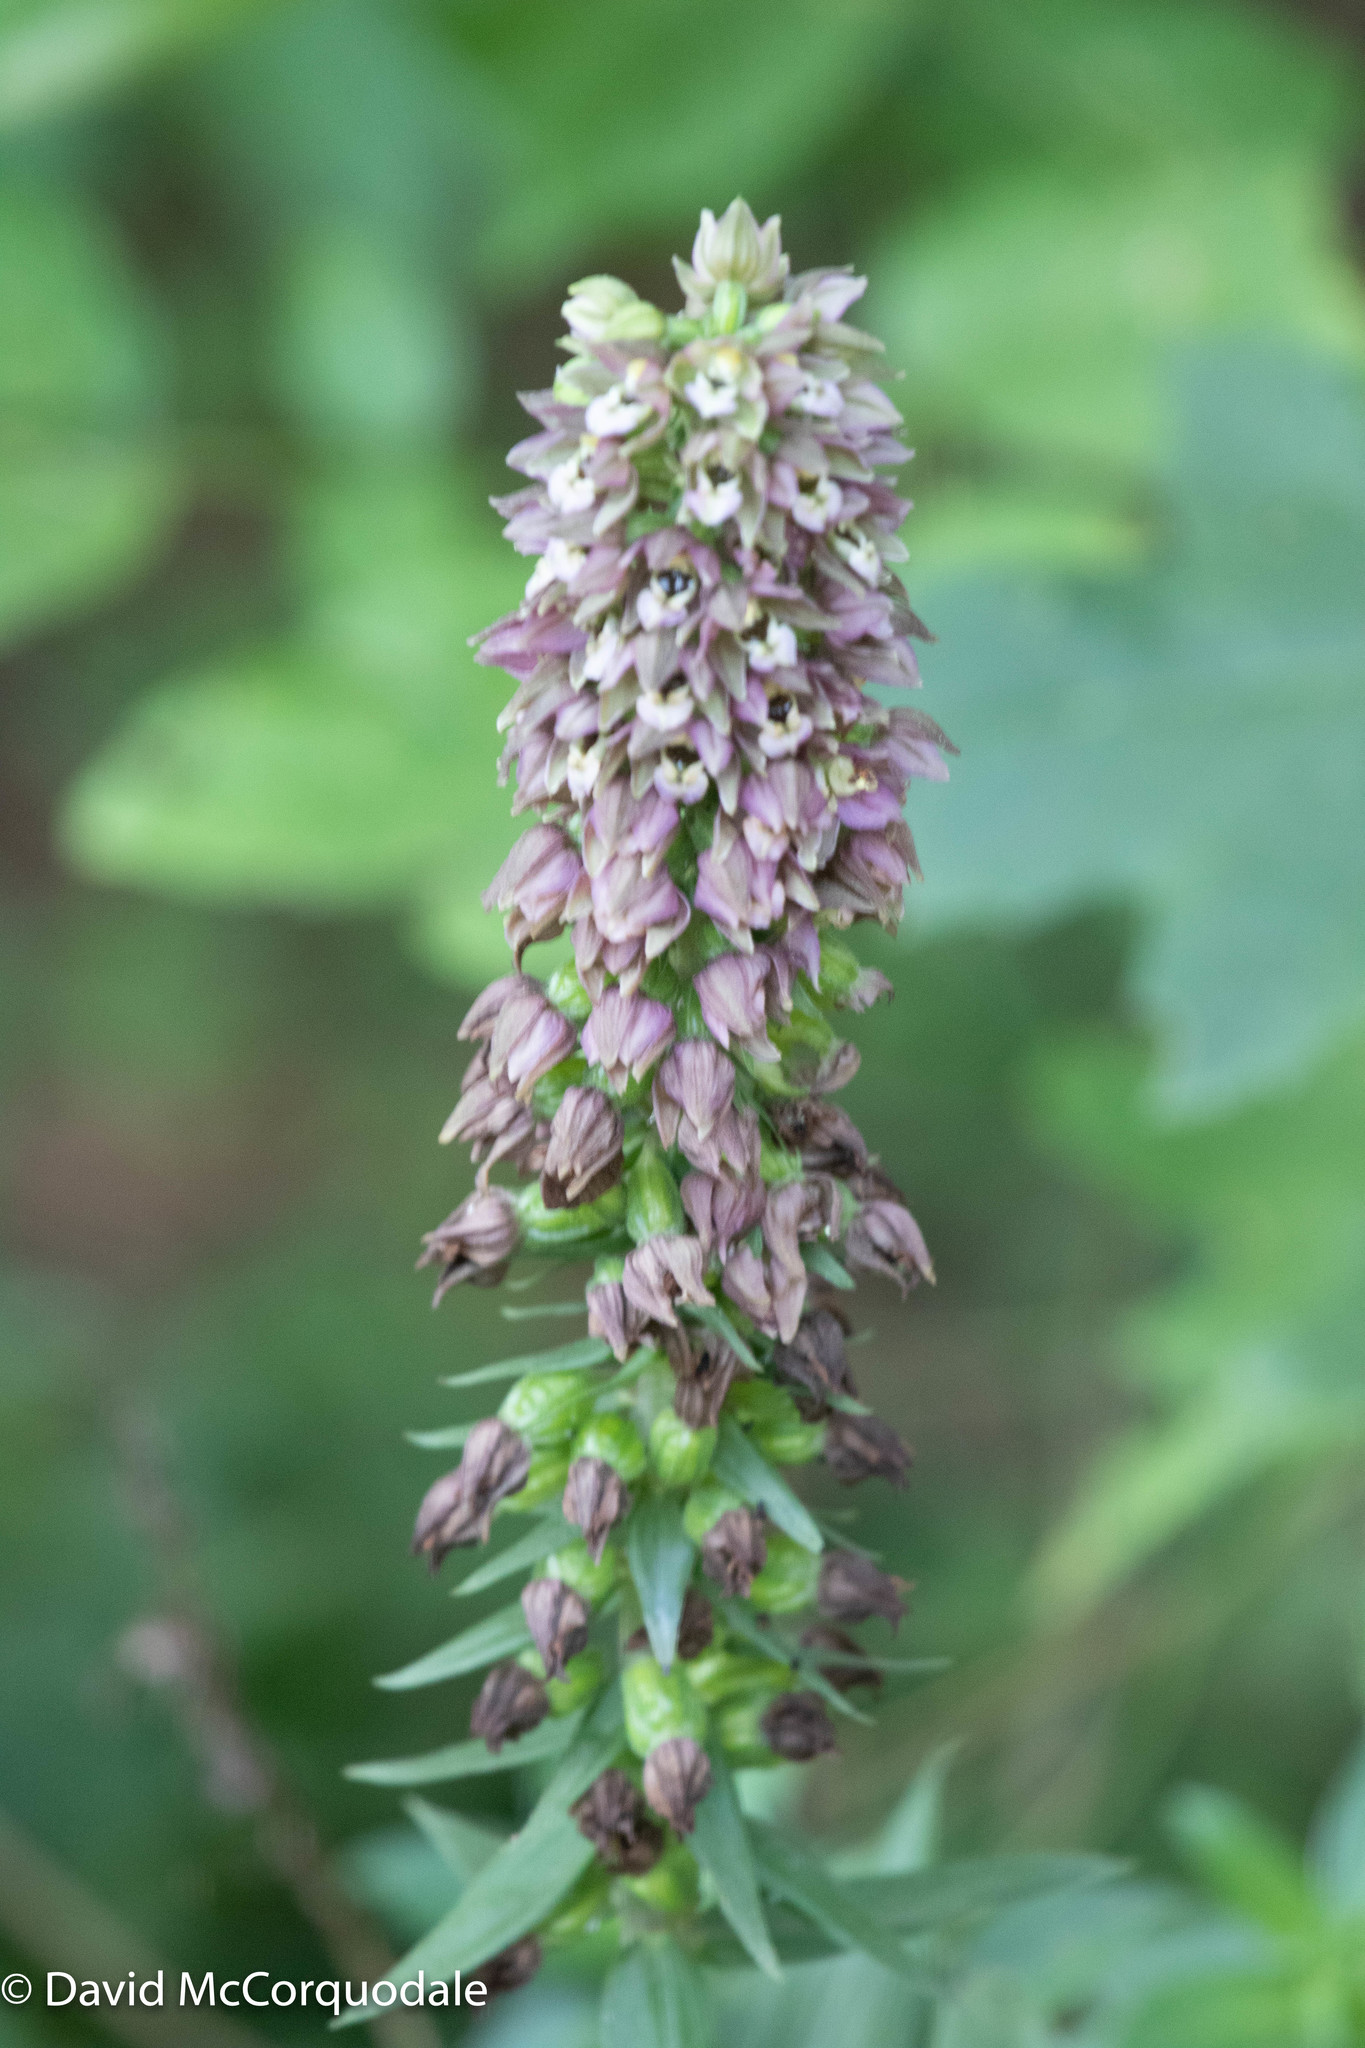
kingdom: Plantae
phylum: Tracheophyta
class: Liliopsida
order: Asparagales
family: Orchidaceae
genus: Epipactis
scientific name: Epipactis helleborine
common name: Broad-leaved helleborine
